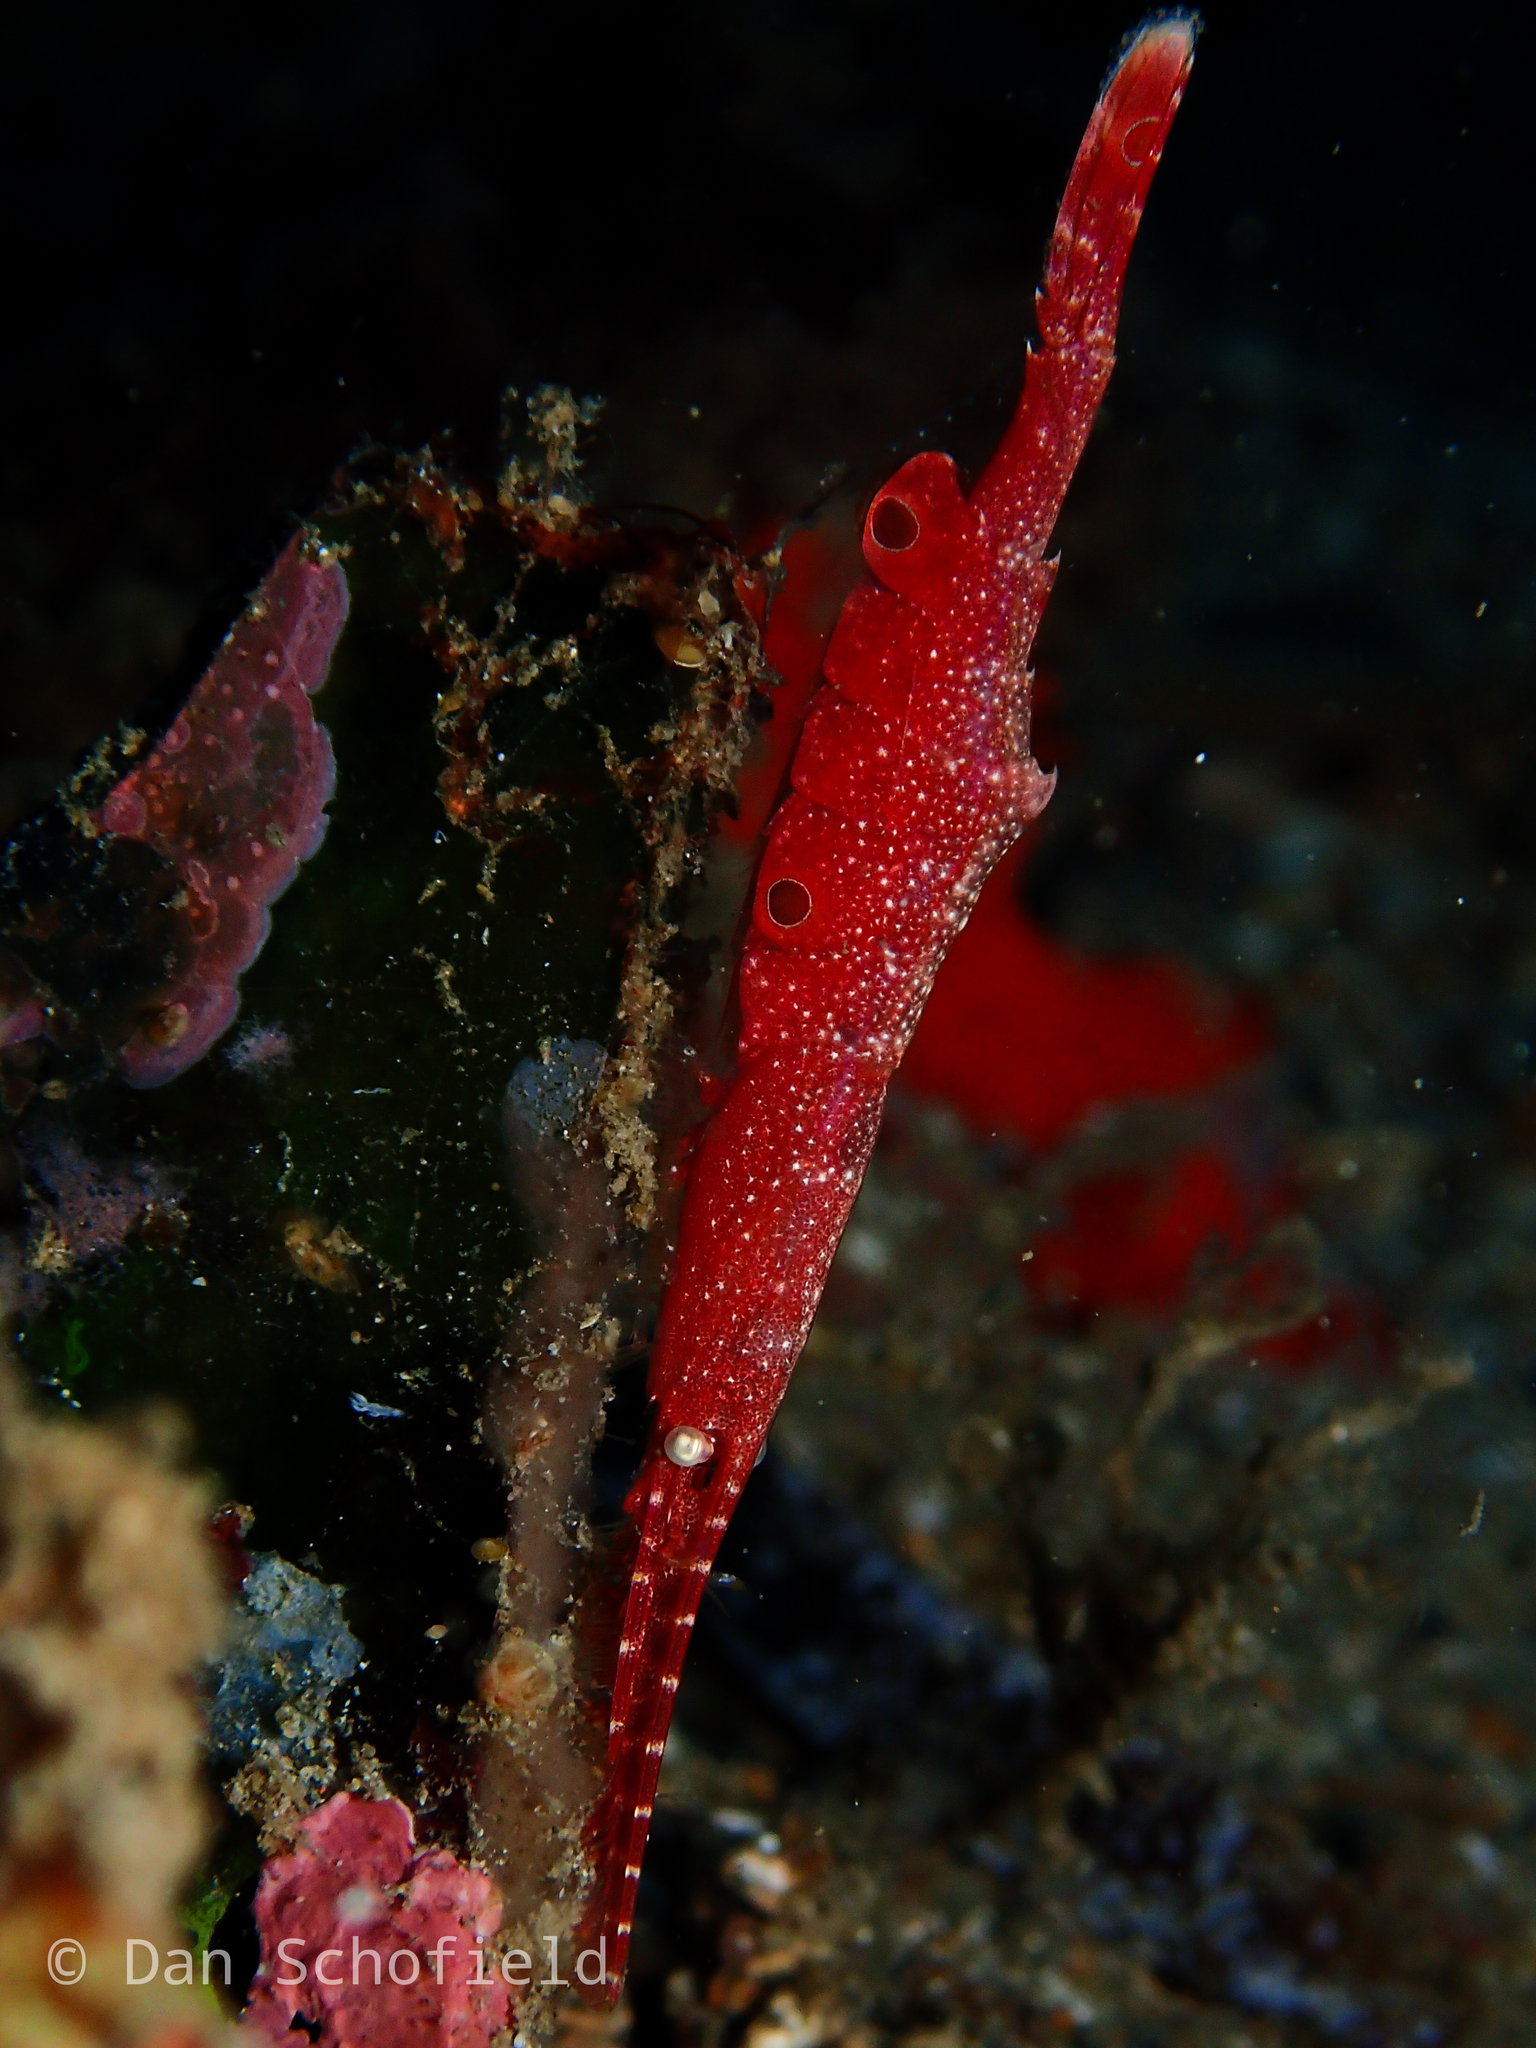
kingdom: Animalia
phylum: Arthropoda
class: Malacostraca
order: Decapoda
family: Hippolytidae
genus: Tozeuma
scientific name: Tozeuma lanceolatum
